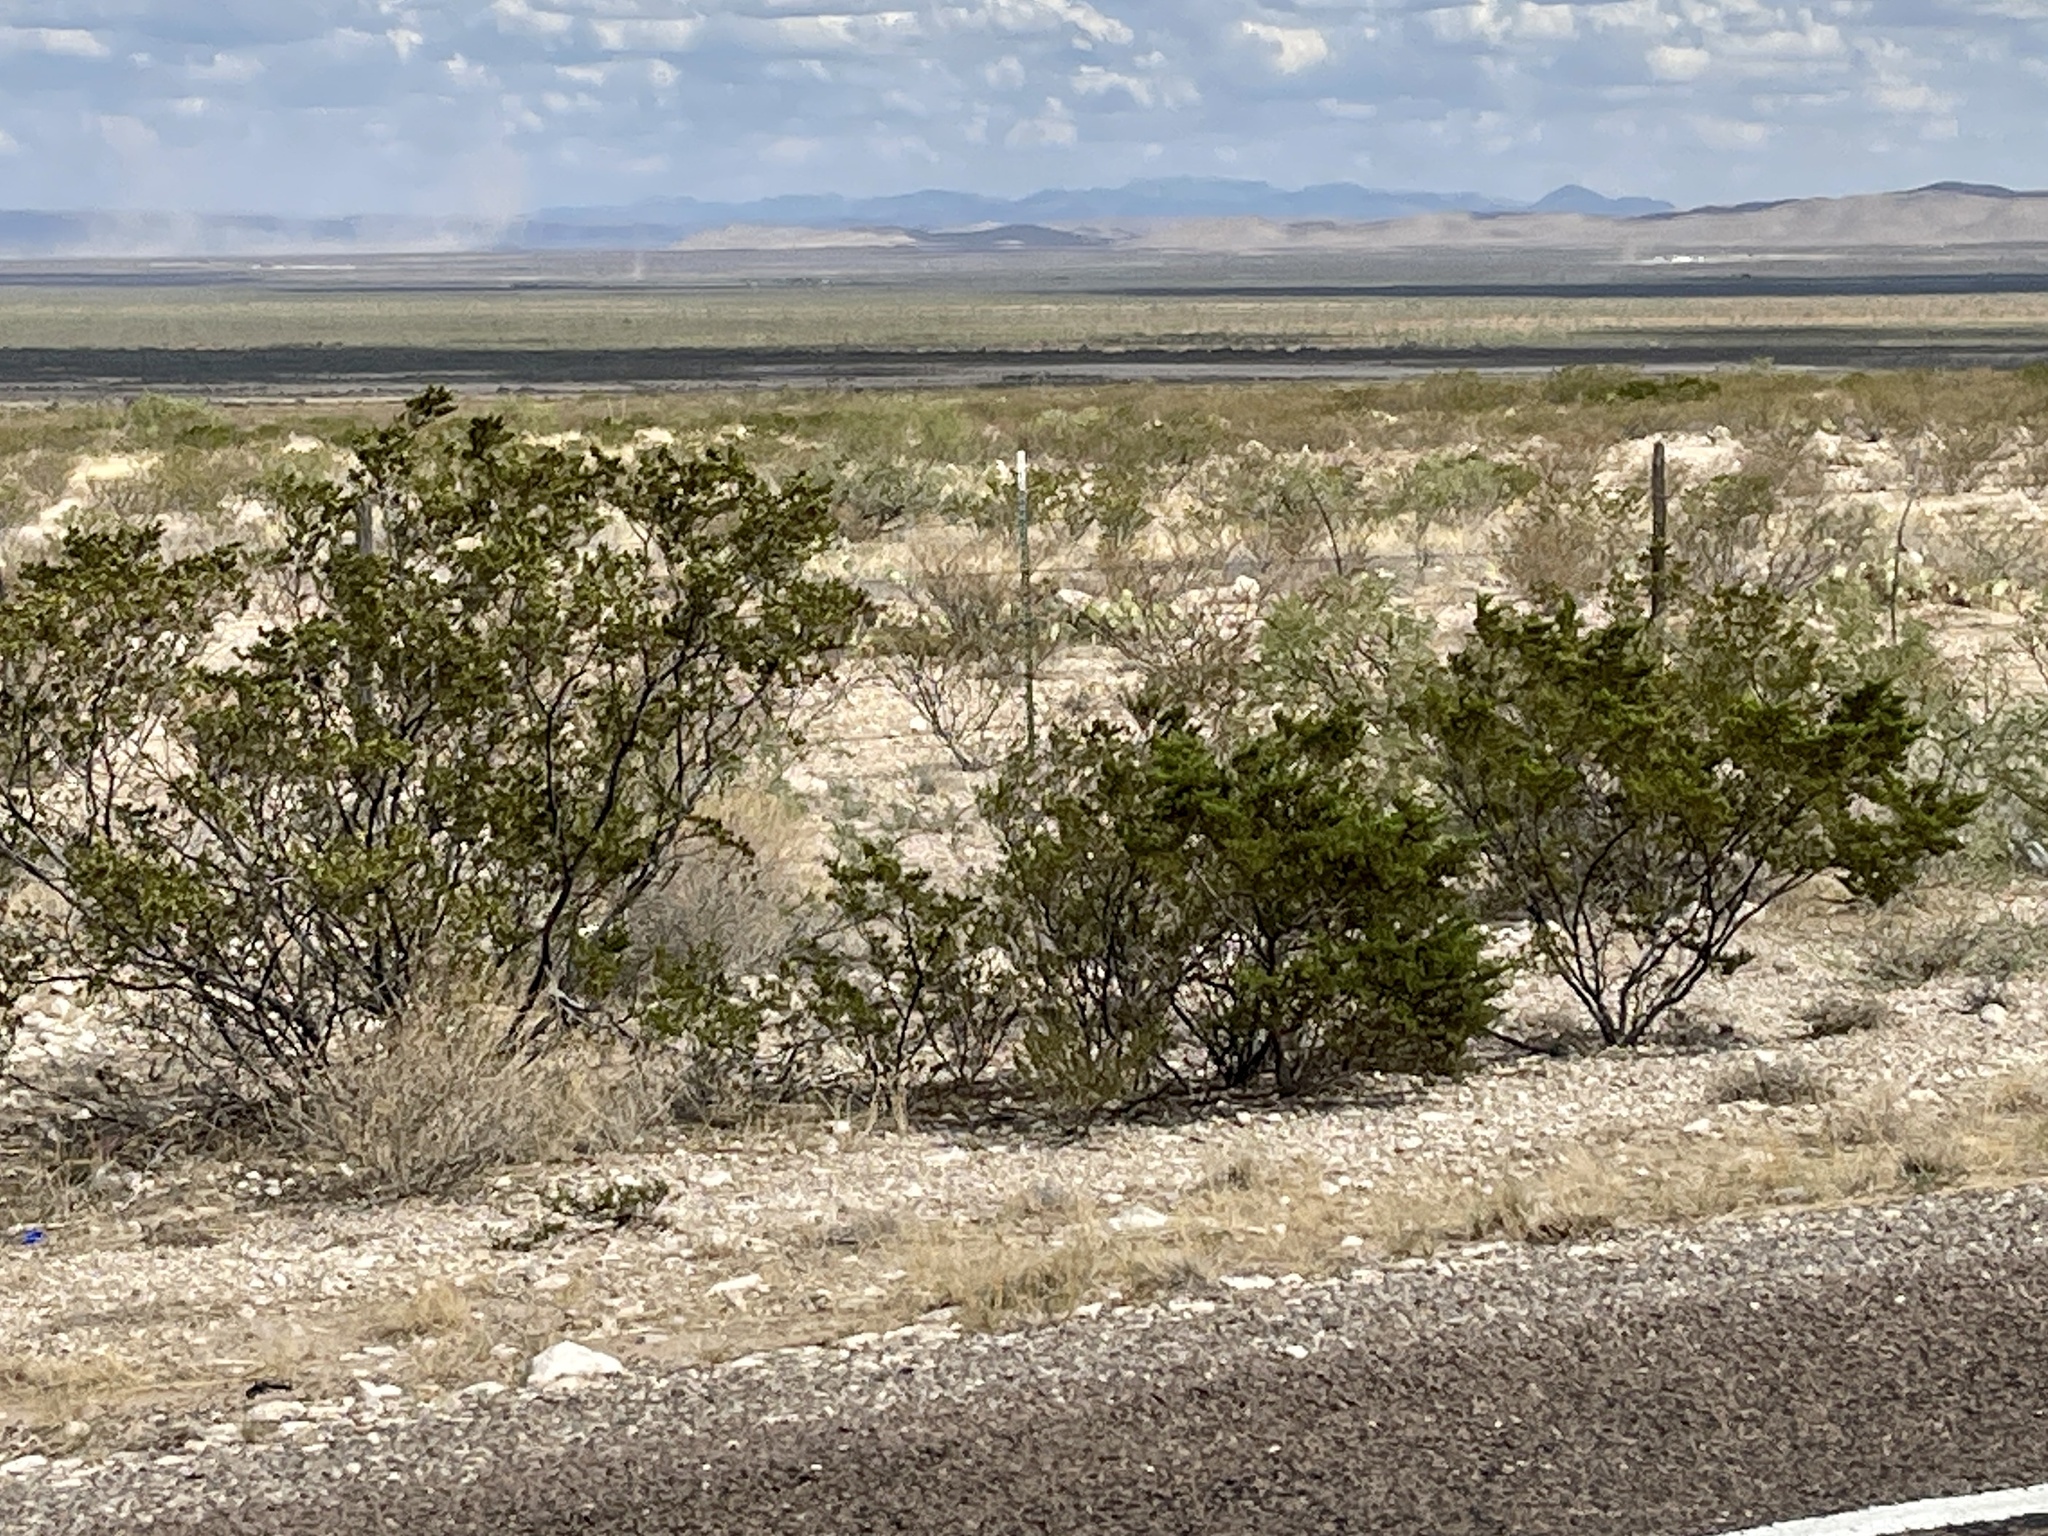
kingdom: Plantae
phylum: Tracheophyta
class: Magnoliopsida
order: Zygophyllales
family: Zygophyllaceae
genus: Larrea
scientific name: Larrea tridentata
